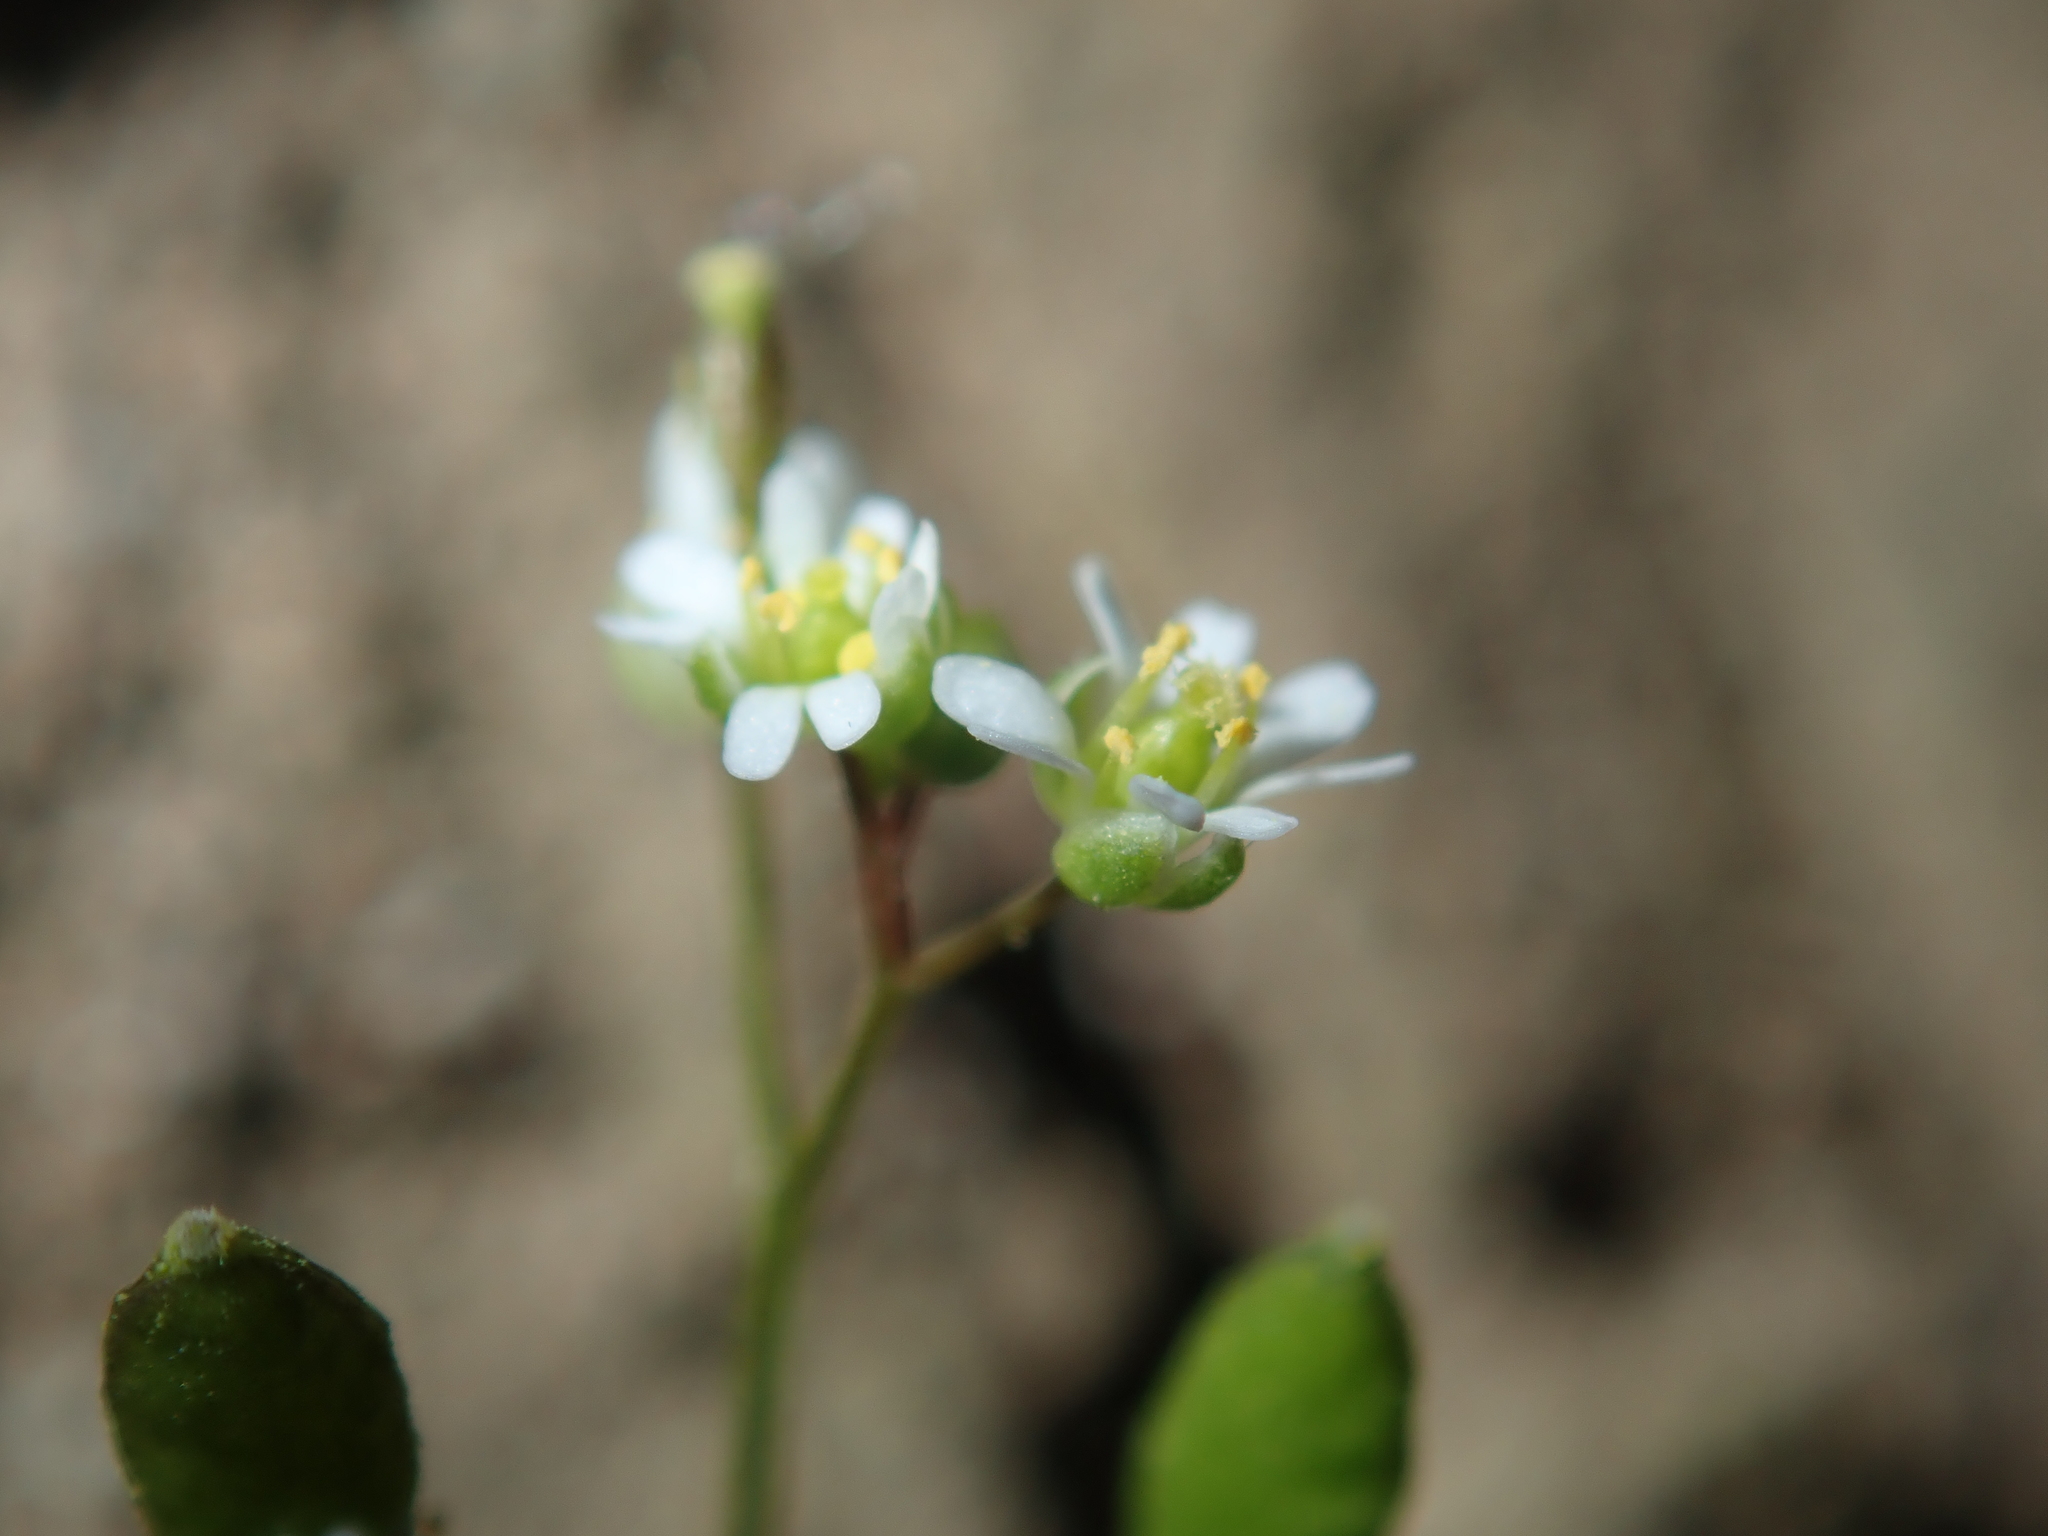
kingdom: Plantae
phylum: Tracheophyta
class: Magnoliopsida
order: Brassicales
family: Brassicaceae
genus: Draba
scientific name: Draba verna
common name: Spring draba
